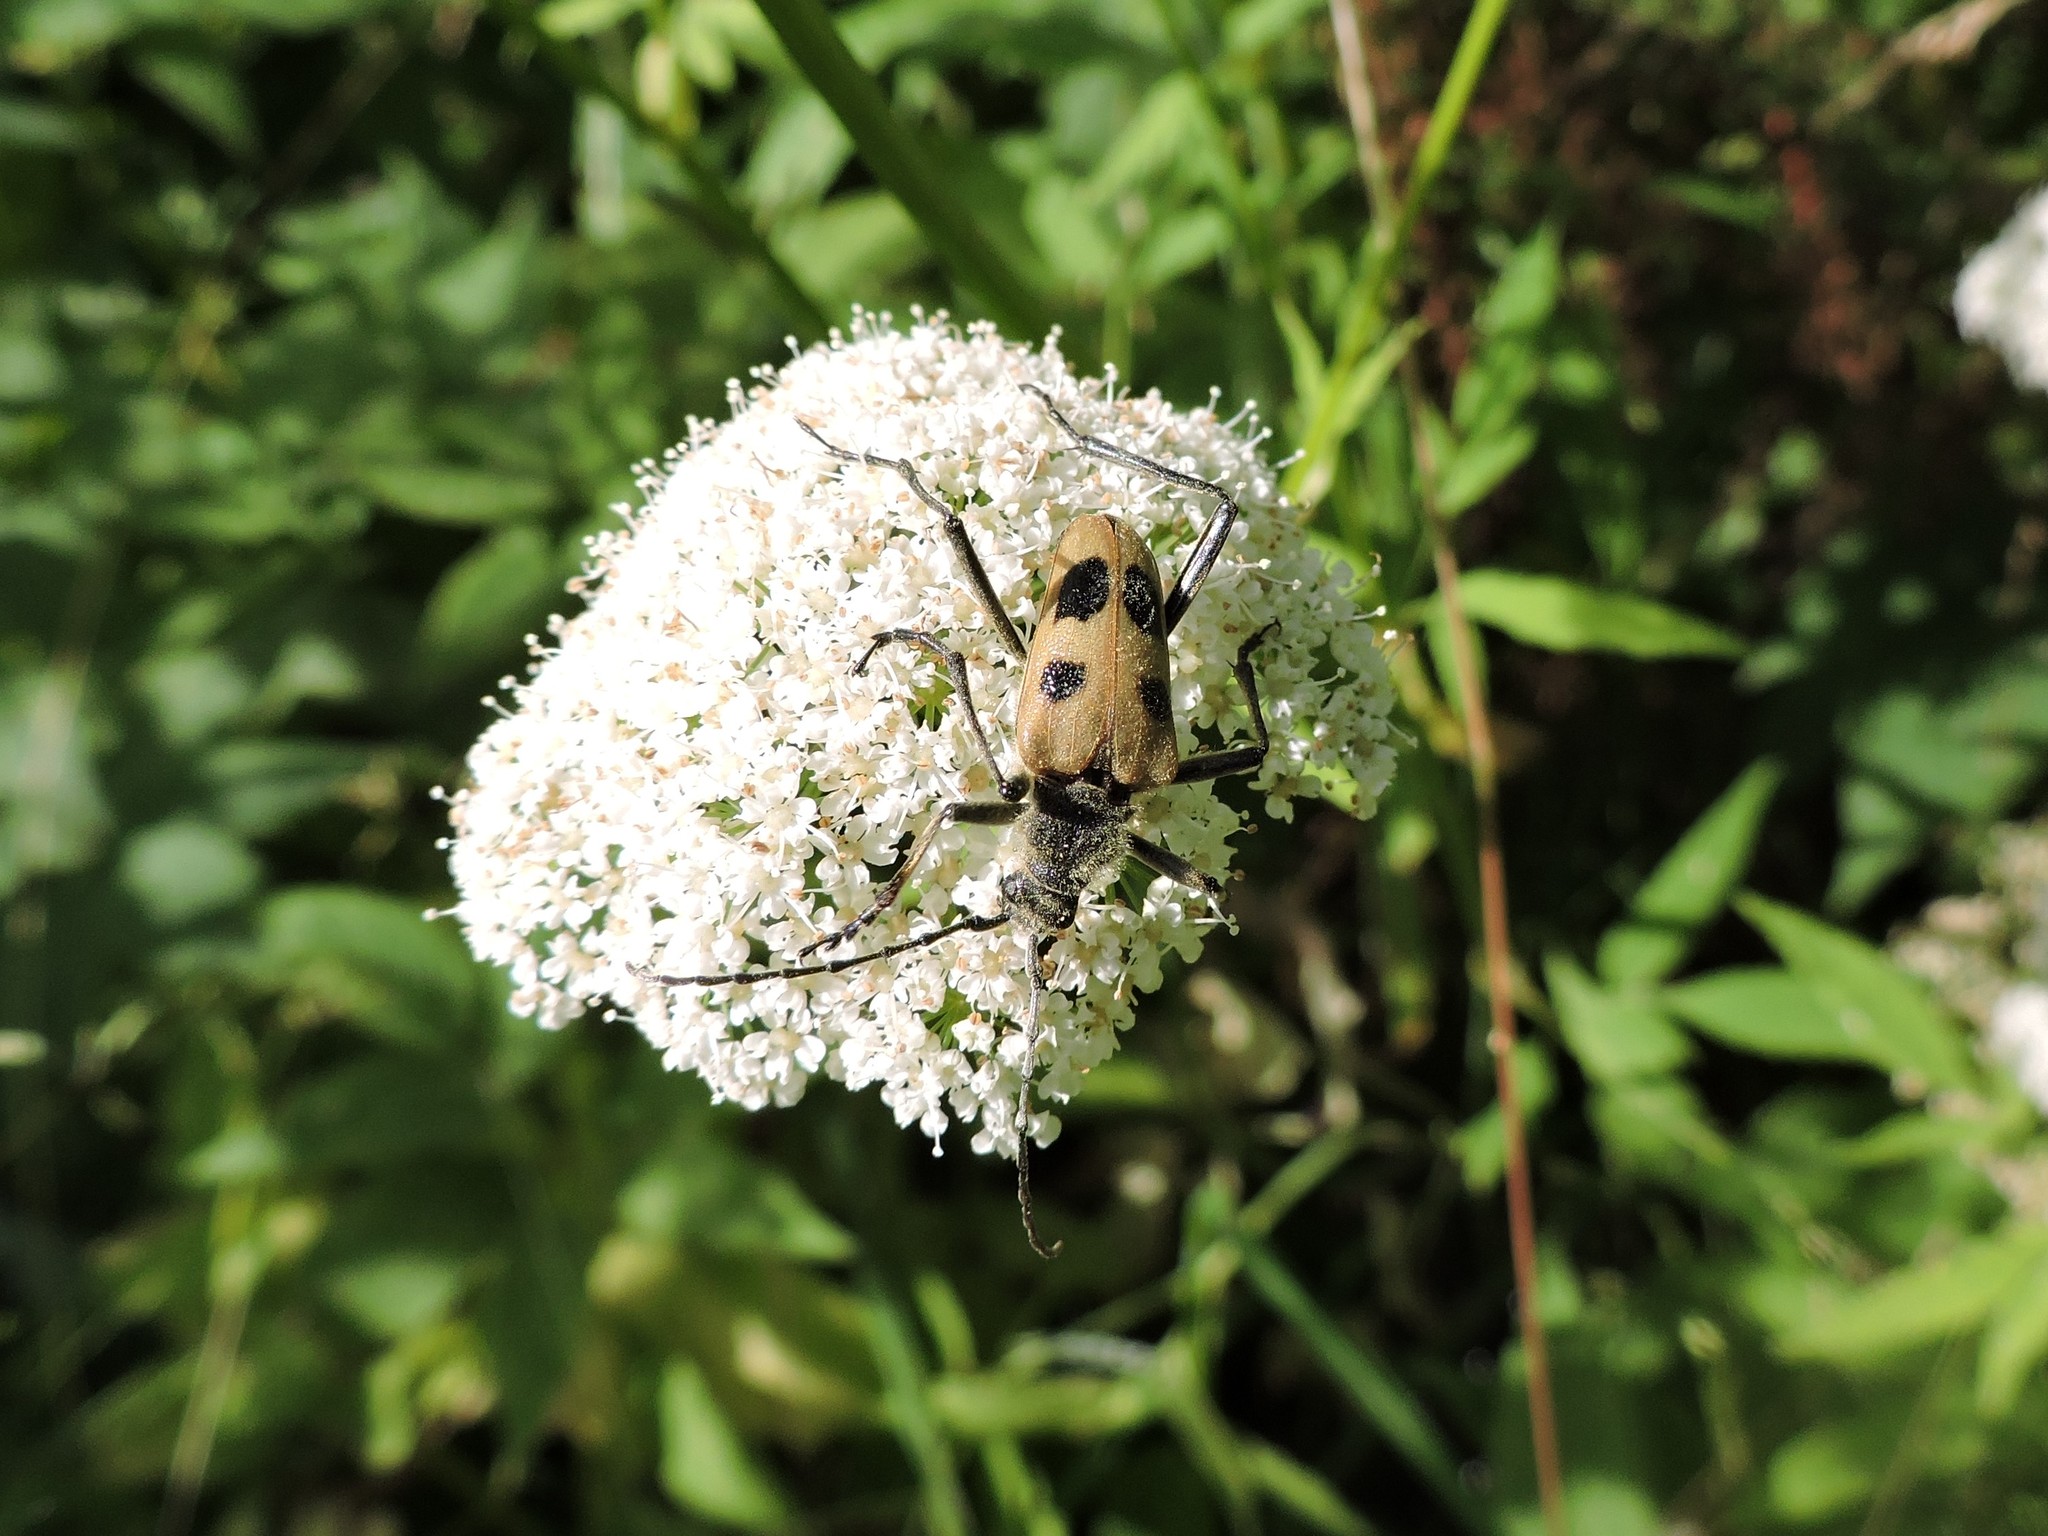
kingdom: Animalia
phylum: Arthropoda
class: Insecta
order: Coleoptera
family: Cerambycidae
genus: Pachyta
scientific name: Pachyta quadrimaculata
